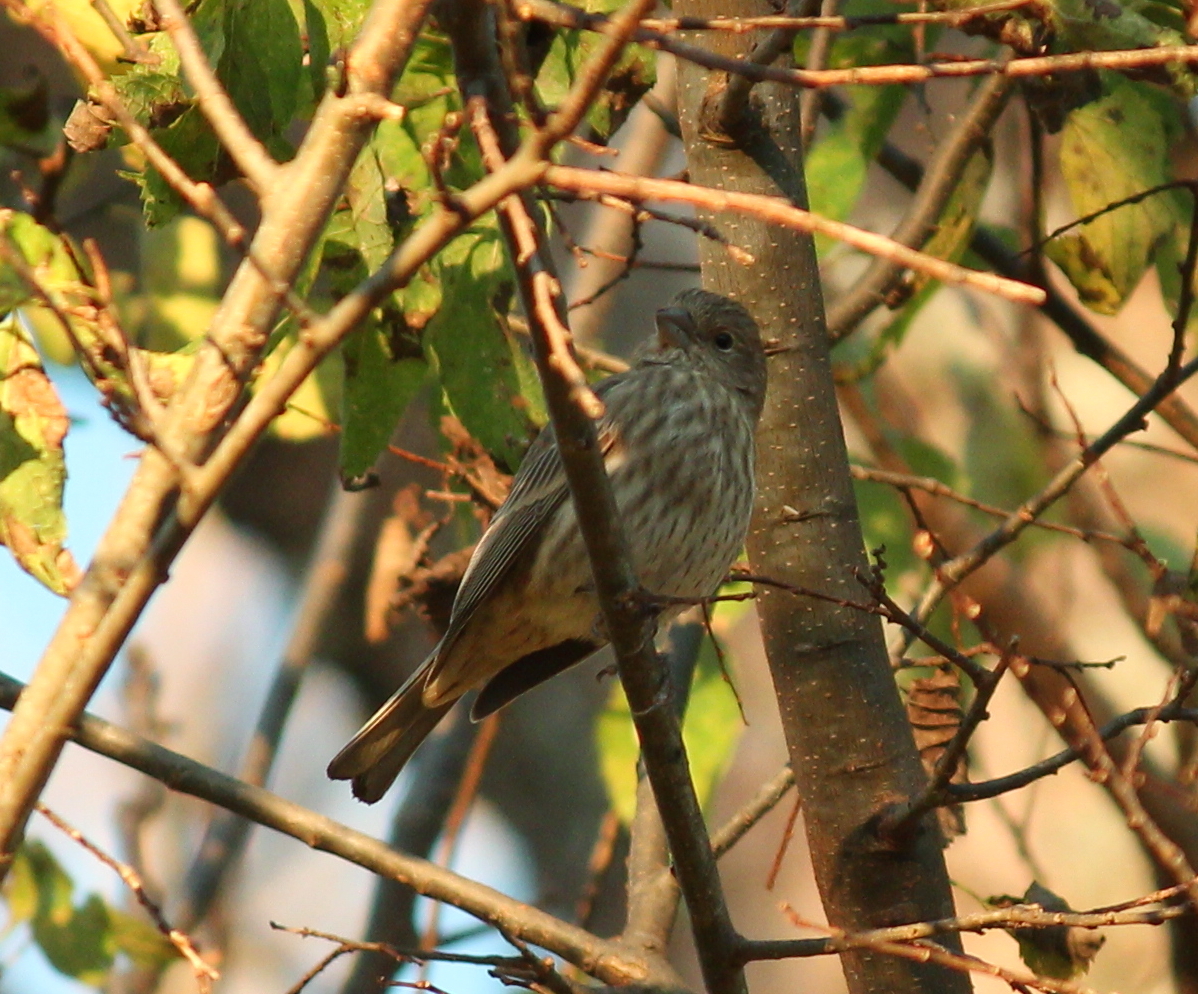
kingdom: Animalia
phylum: Chordata
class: Aves
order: Passeriformes
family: Fringillidae
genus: Haemorhous
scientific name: Haemorhous mexicanus
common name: House finch
